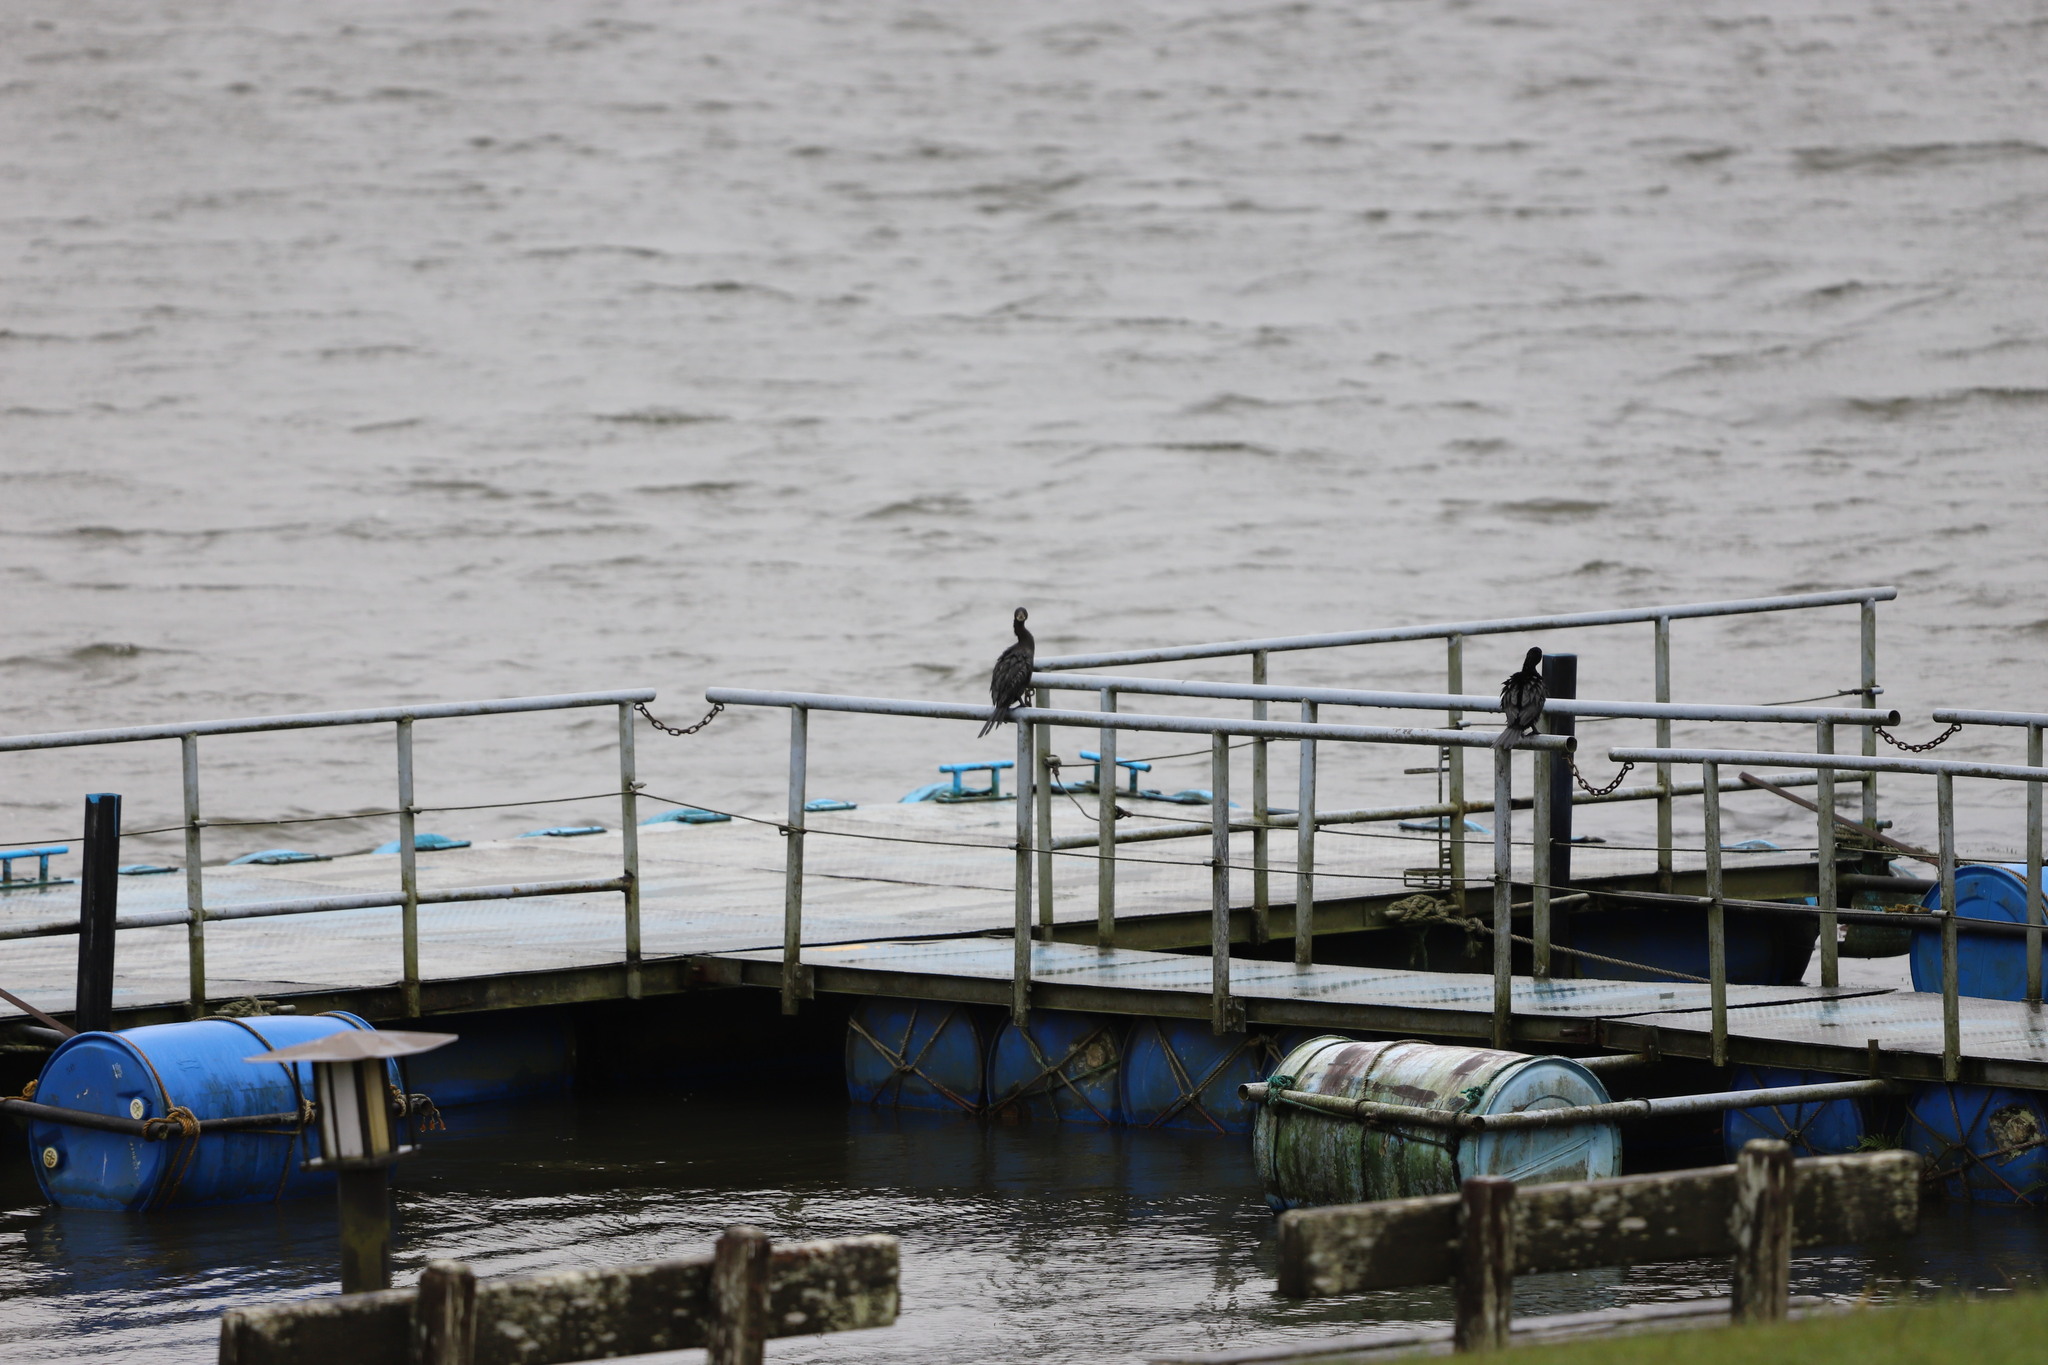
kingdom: Animalia
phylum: Chordata
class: Aves
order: Suliformes
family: Phalacrocoracidae
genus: Microcarbo
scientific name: Microcarbo niger
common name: Little cormorant
